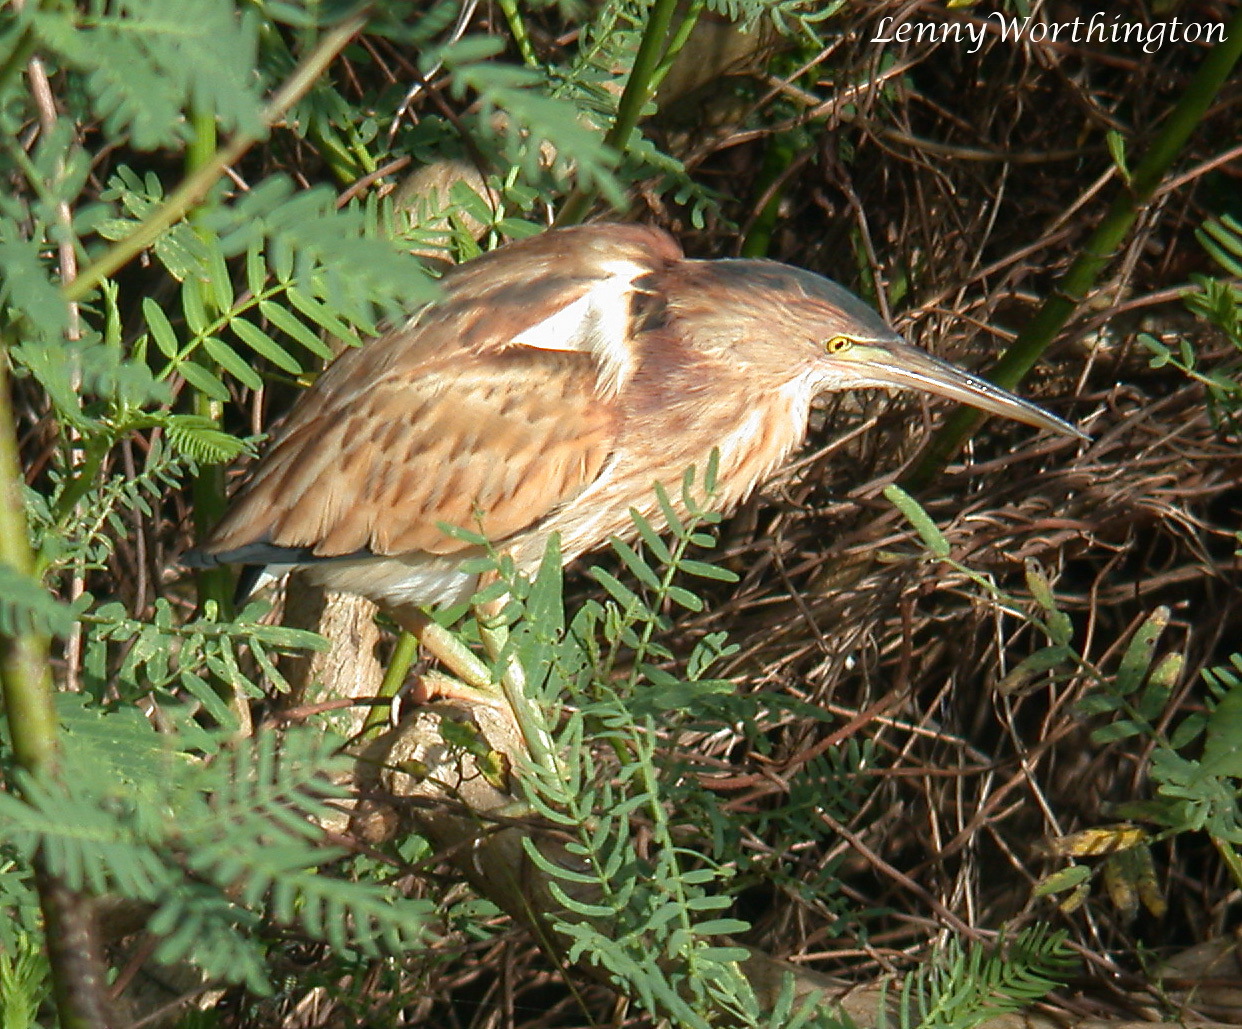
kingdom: Animalia
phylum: Chordata
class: Aves
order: Pelecaniformes
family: Ardeidae
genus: Ixobrychus
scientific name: Ixobrychus sinensis
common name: Yellow bittern
